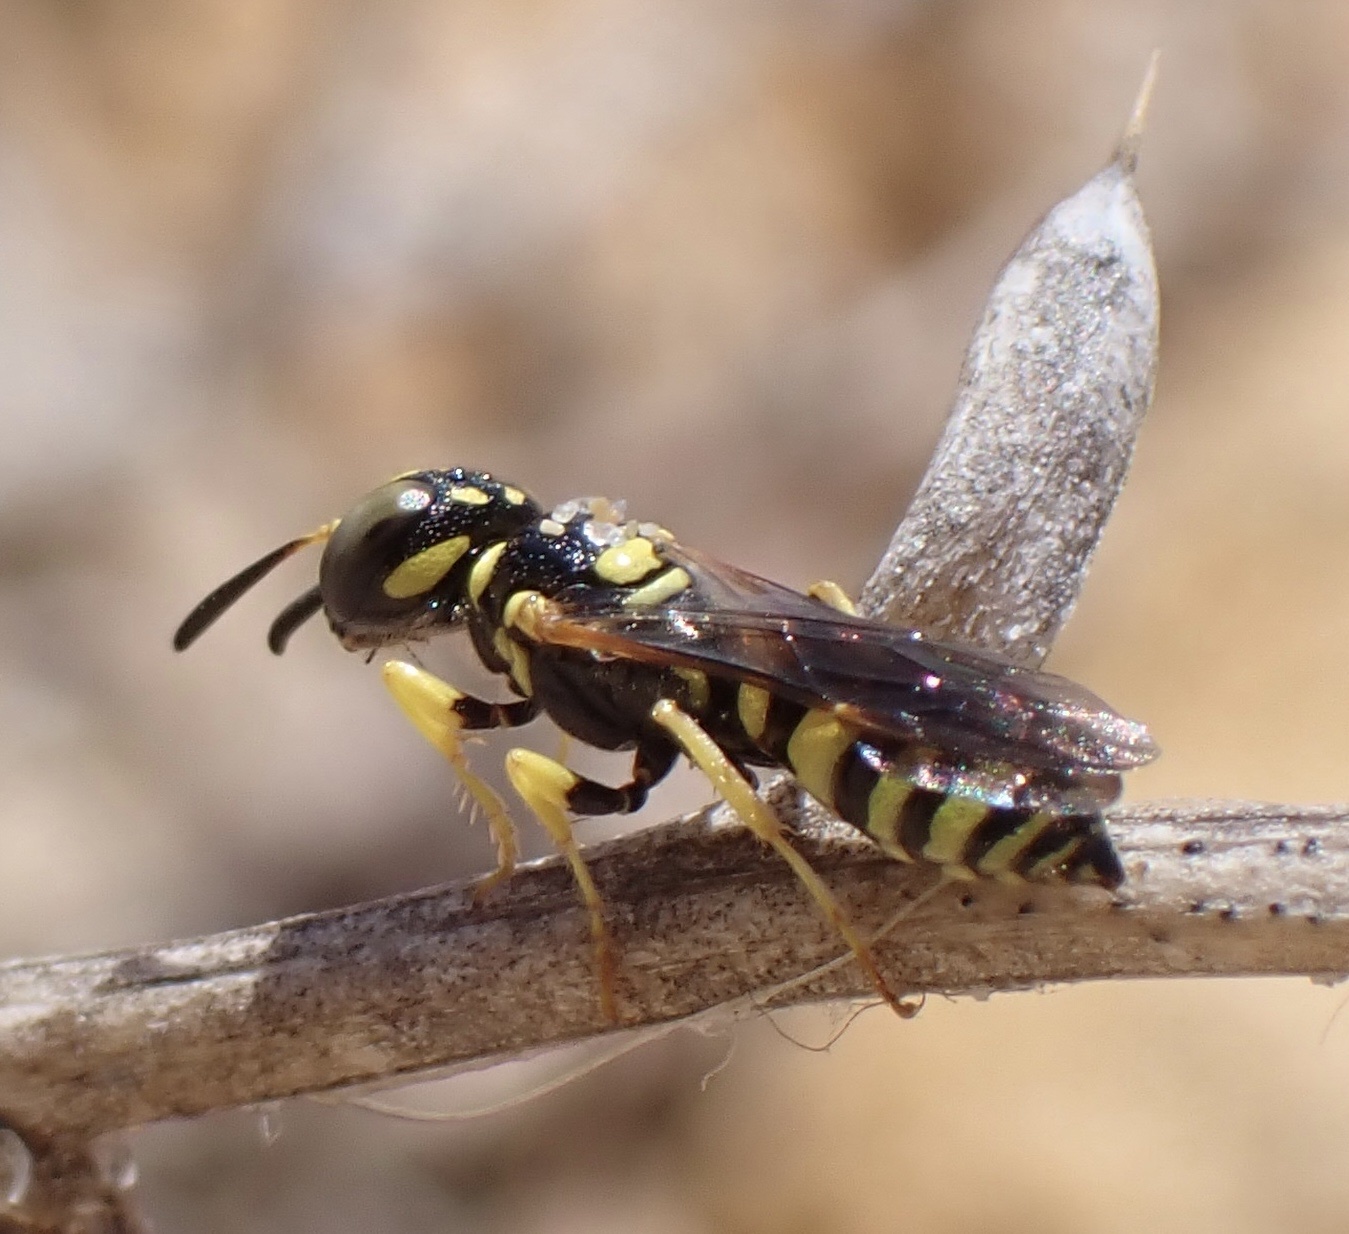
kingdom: Animalia
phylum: Arthropoda
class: Insecta
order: Hymenoptera
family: Crabronidae
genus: Philanthus
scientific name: Philanthus pulchellus
